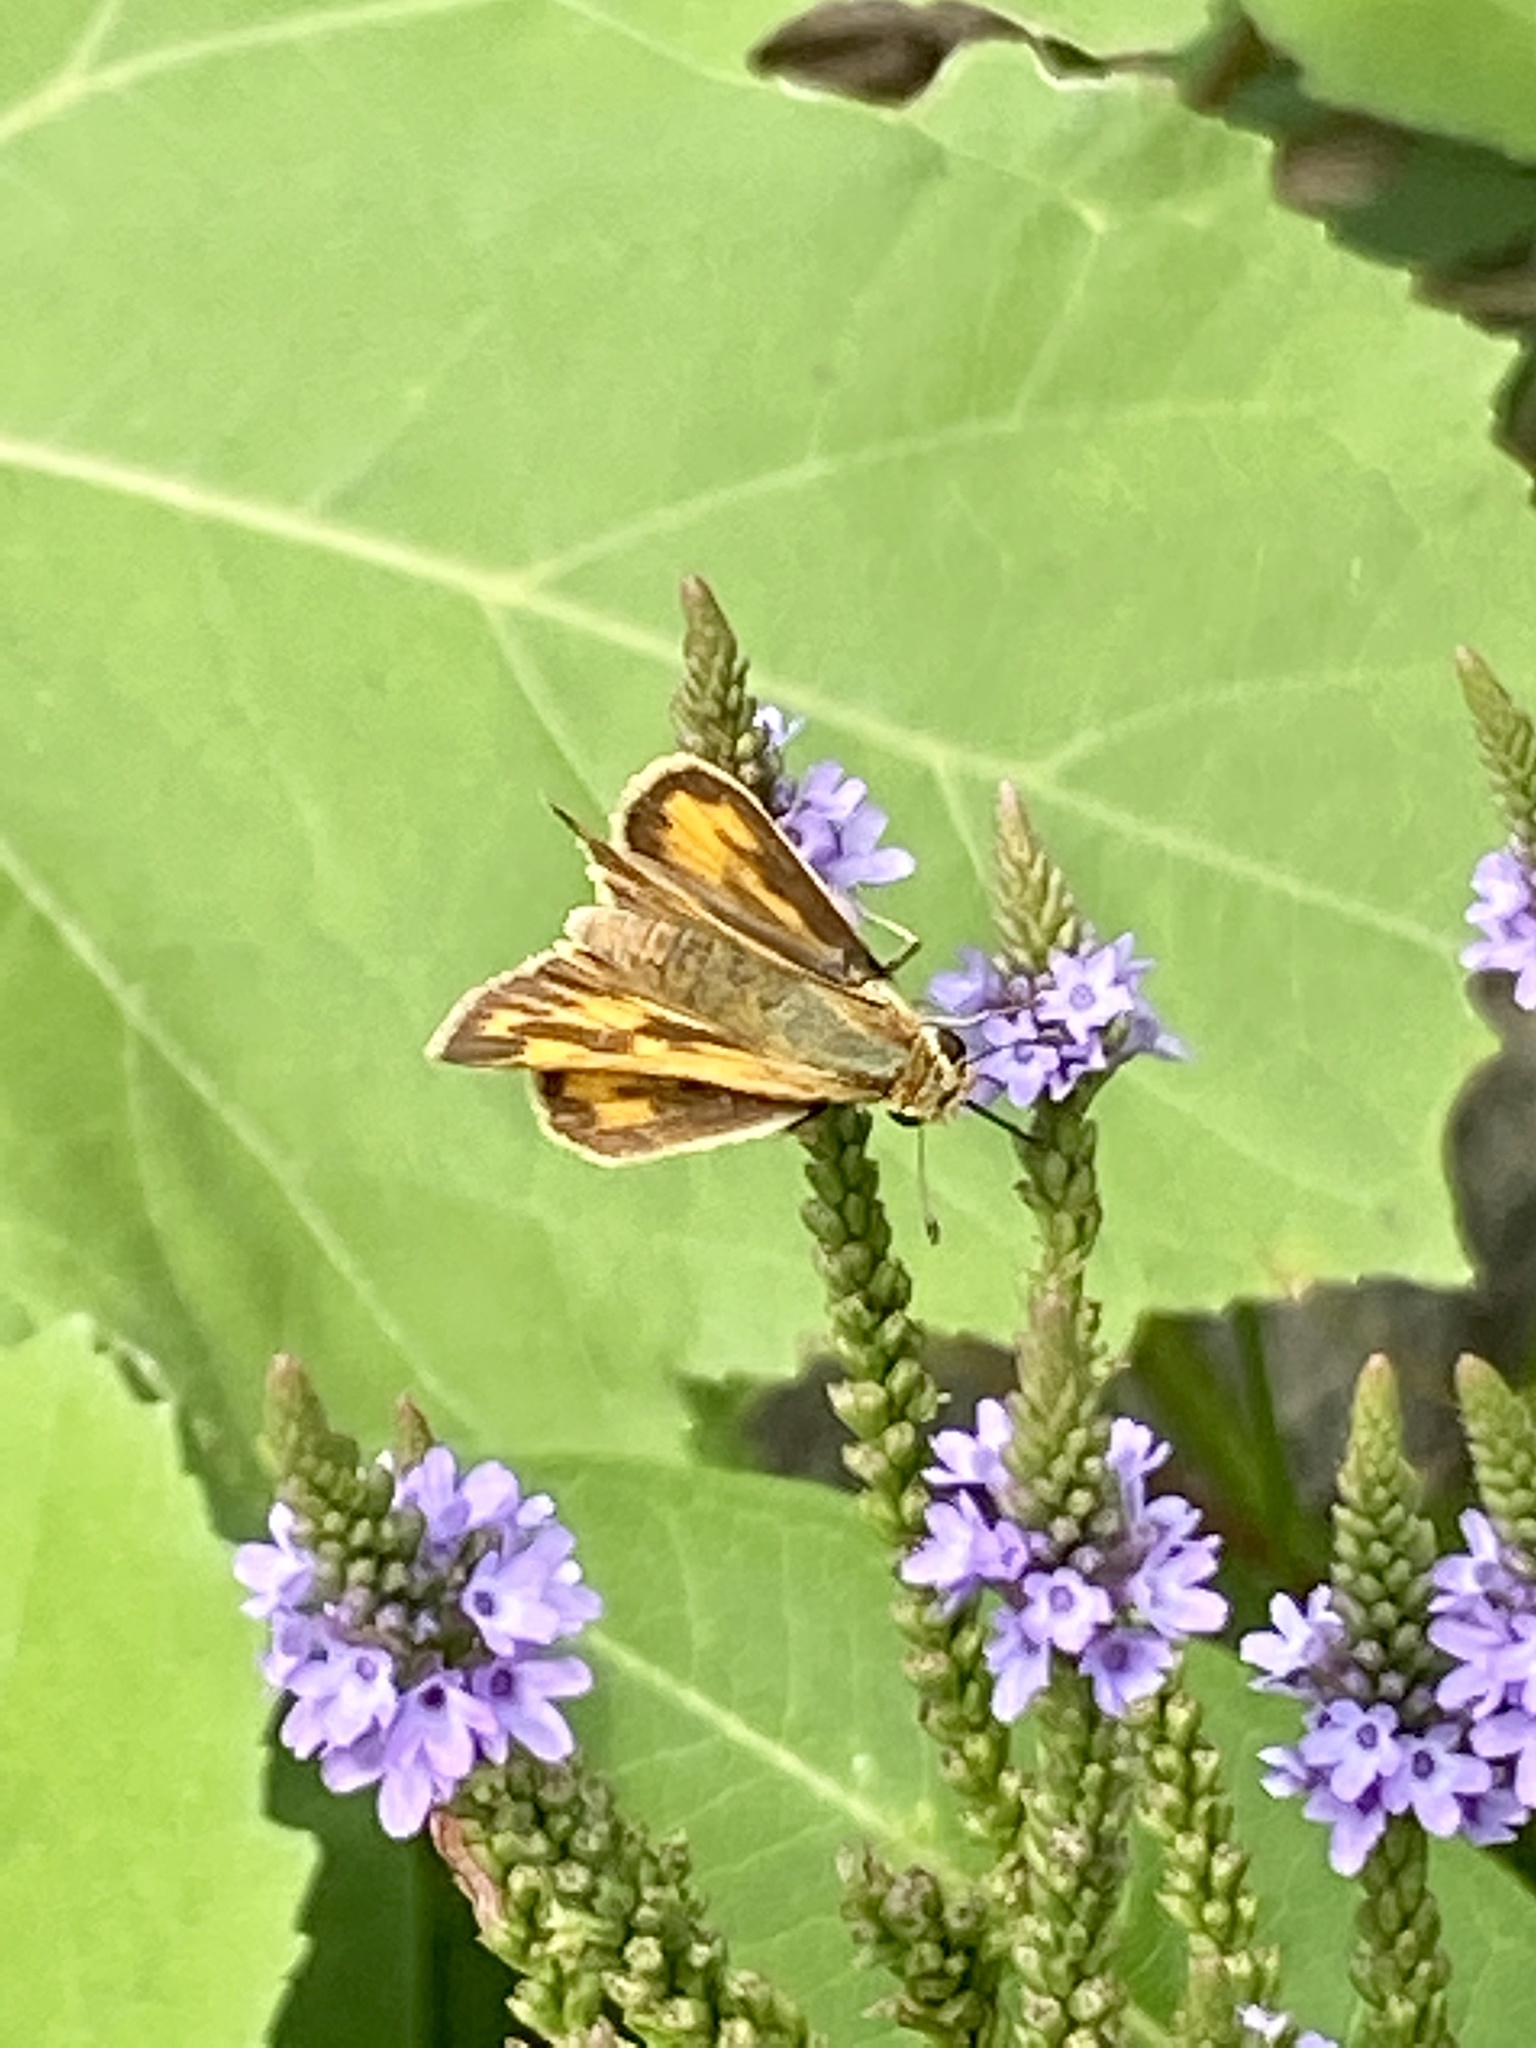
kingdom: Animalia
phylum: Arthropoda
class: Insecta
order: Lepidoptera
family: Hesperiidae
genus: Hylephila
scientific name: Hylephila phyleus
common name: Fiery skipper
